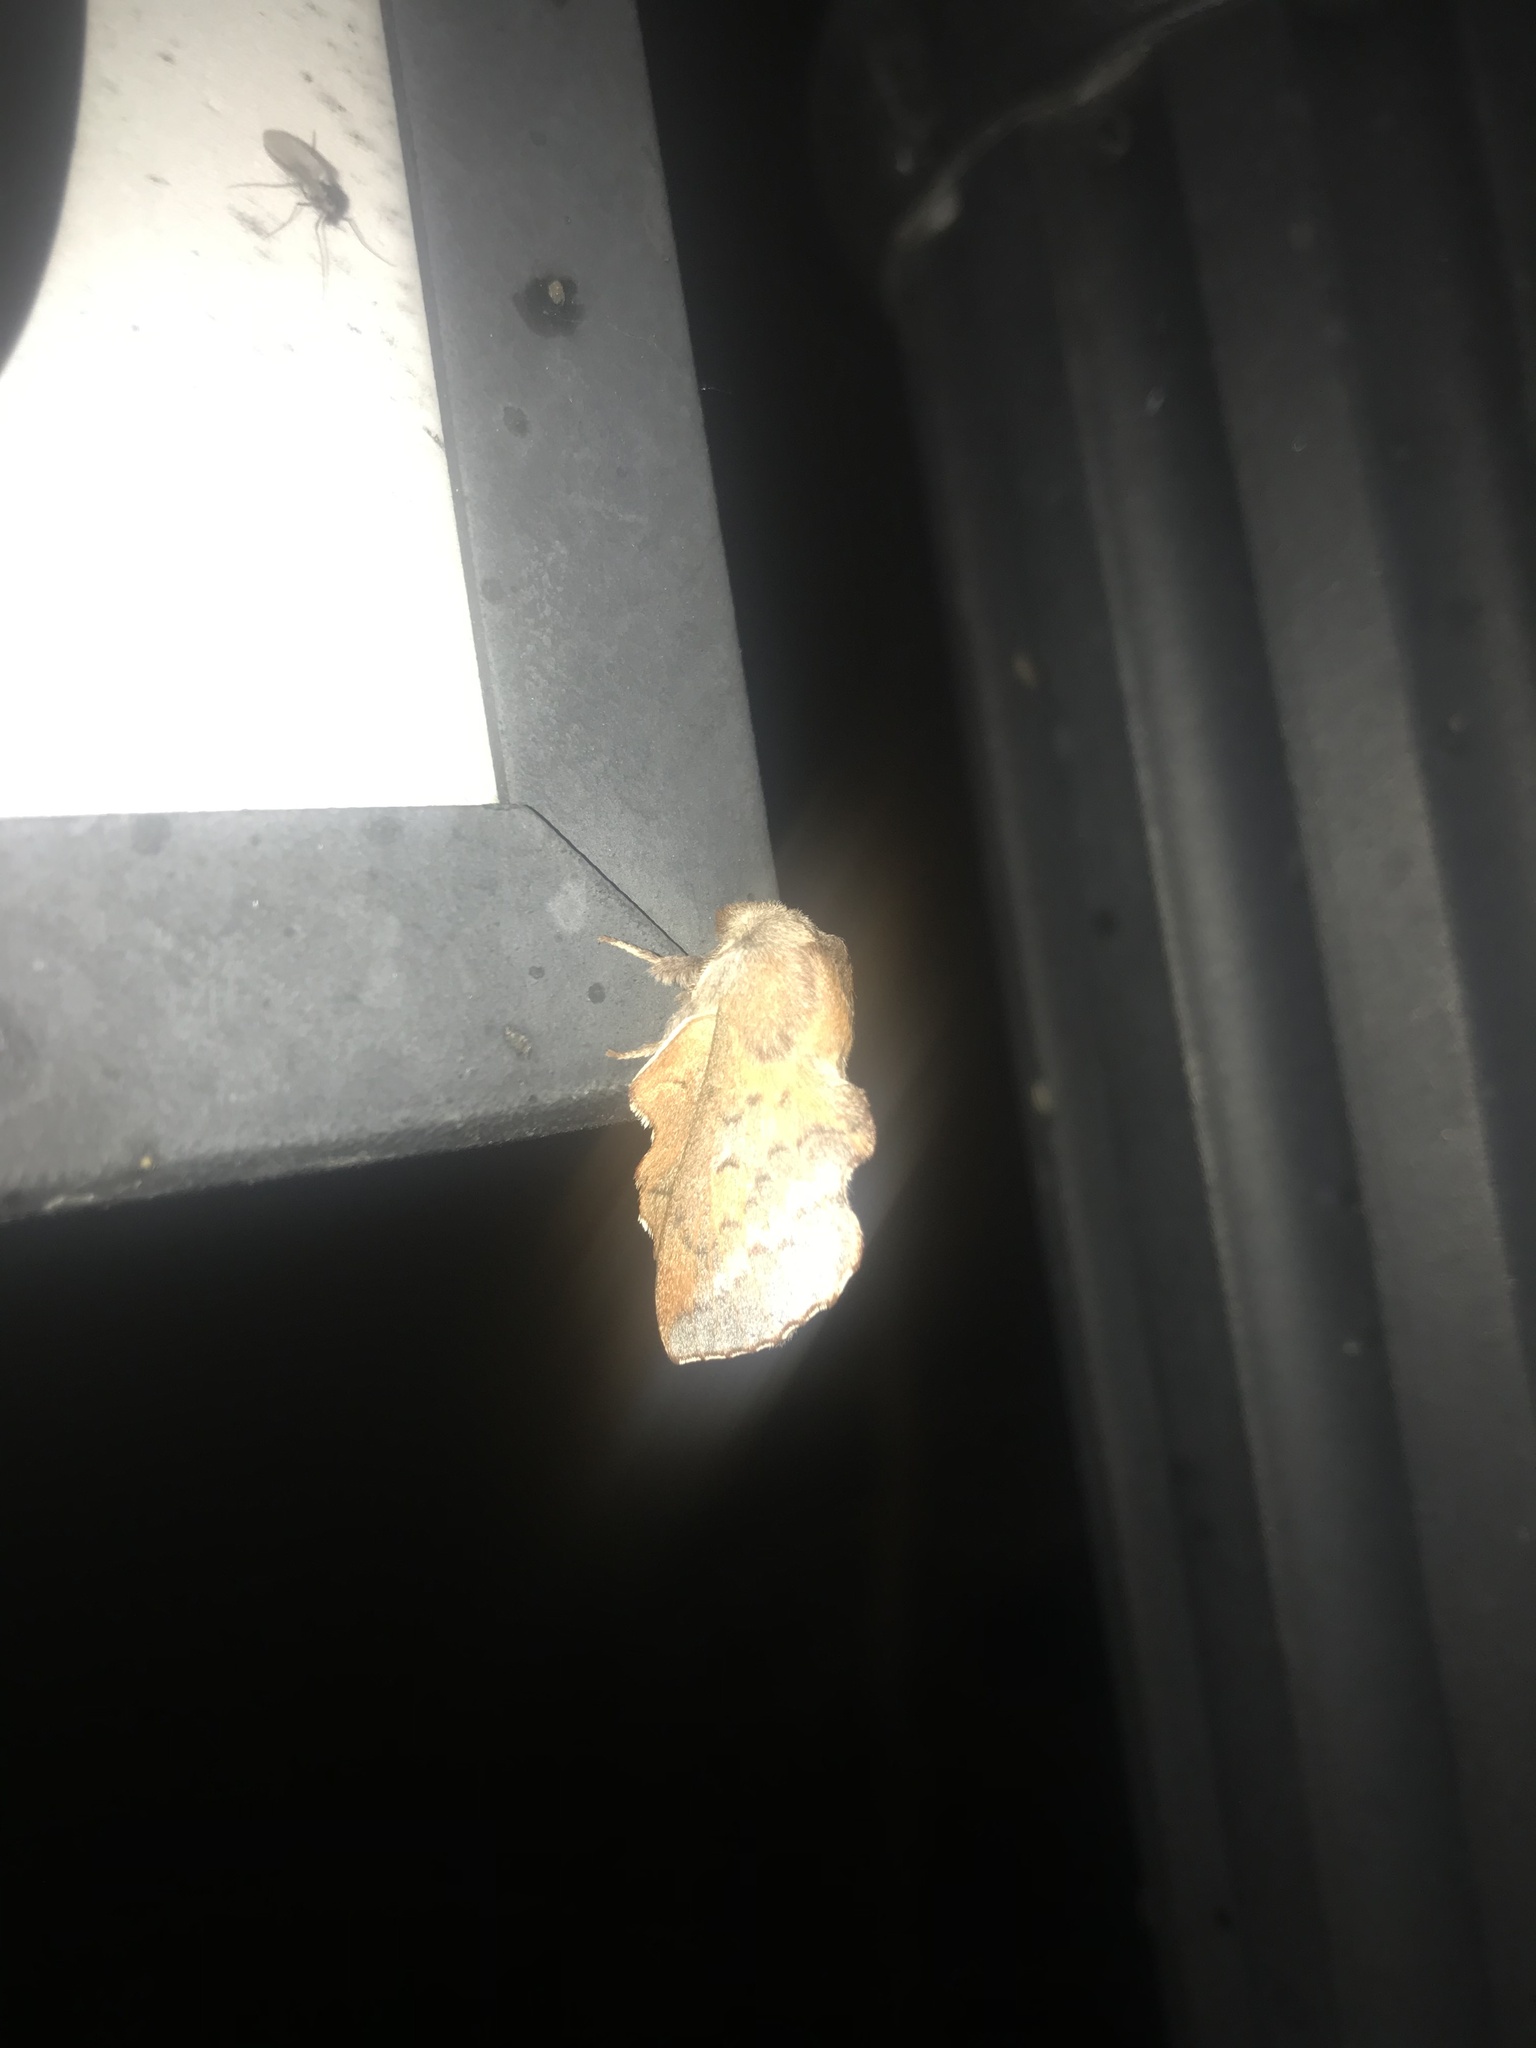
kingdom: Animalia
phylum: Arthropoda
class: Insecta
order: Lepidoptera
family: Lasiocampidae
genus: Phyllodesma
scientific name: Phyllodesma americana
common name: American lappet moth
